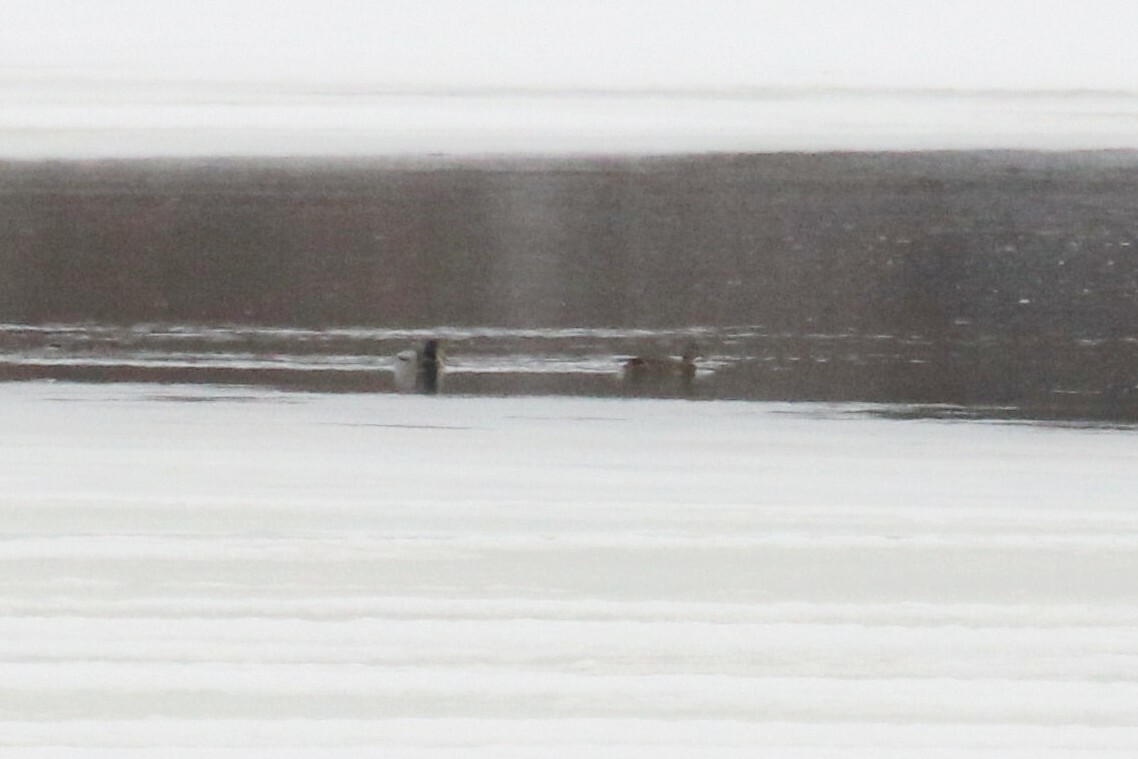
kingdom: Animalia
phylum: Chordata
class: Aves
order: Anseriformes
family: Anatidae
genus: Anas
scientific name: Anas platyrhynchos
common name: Mallard
